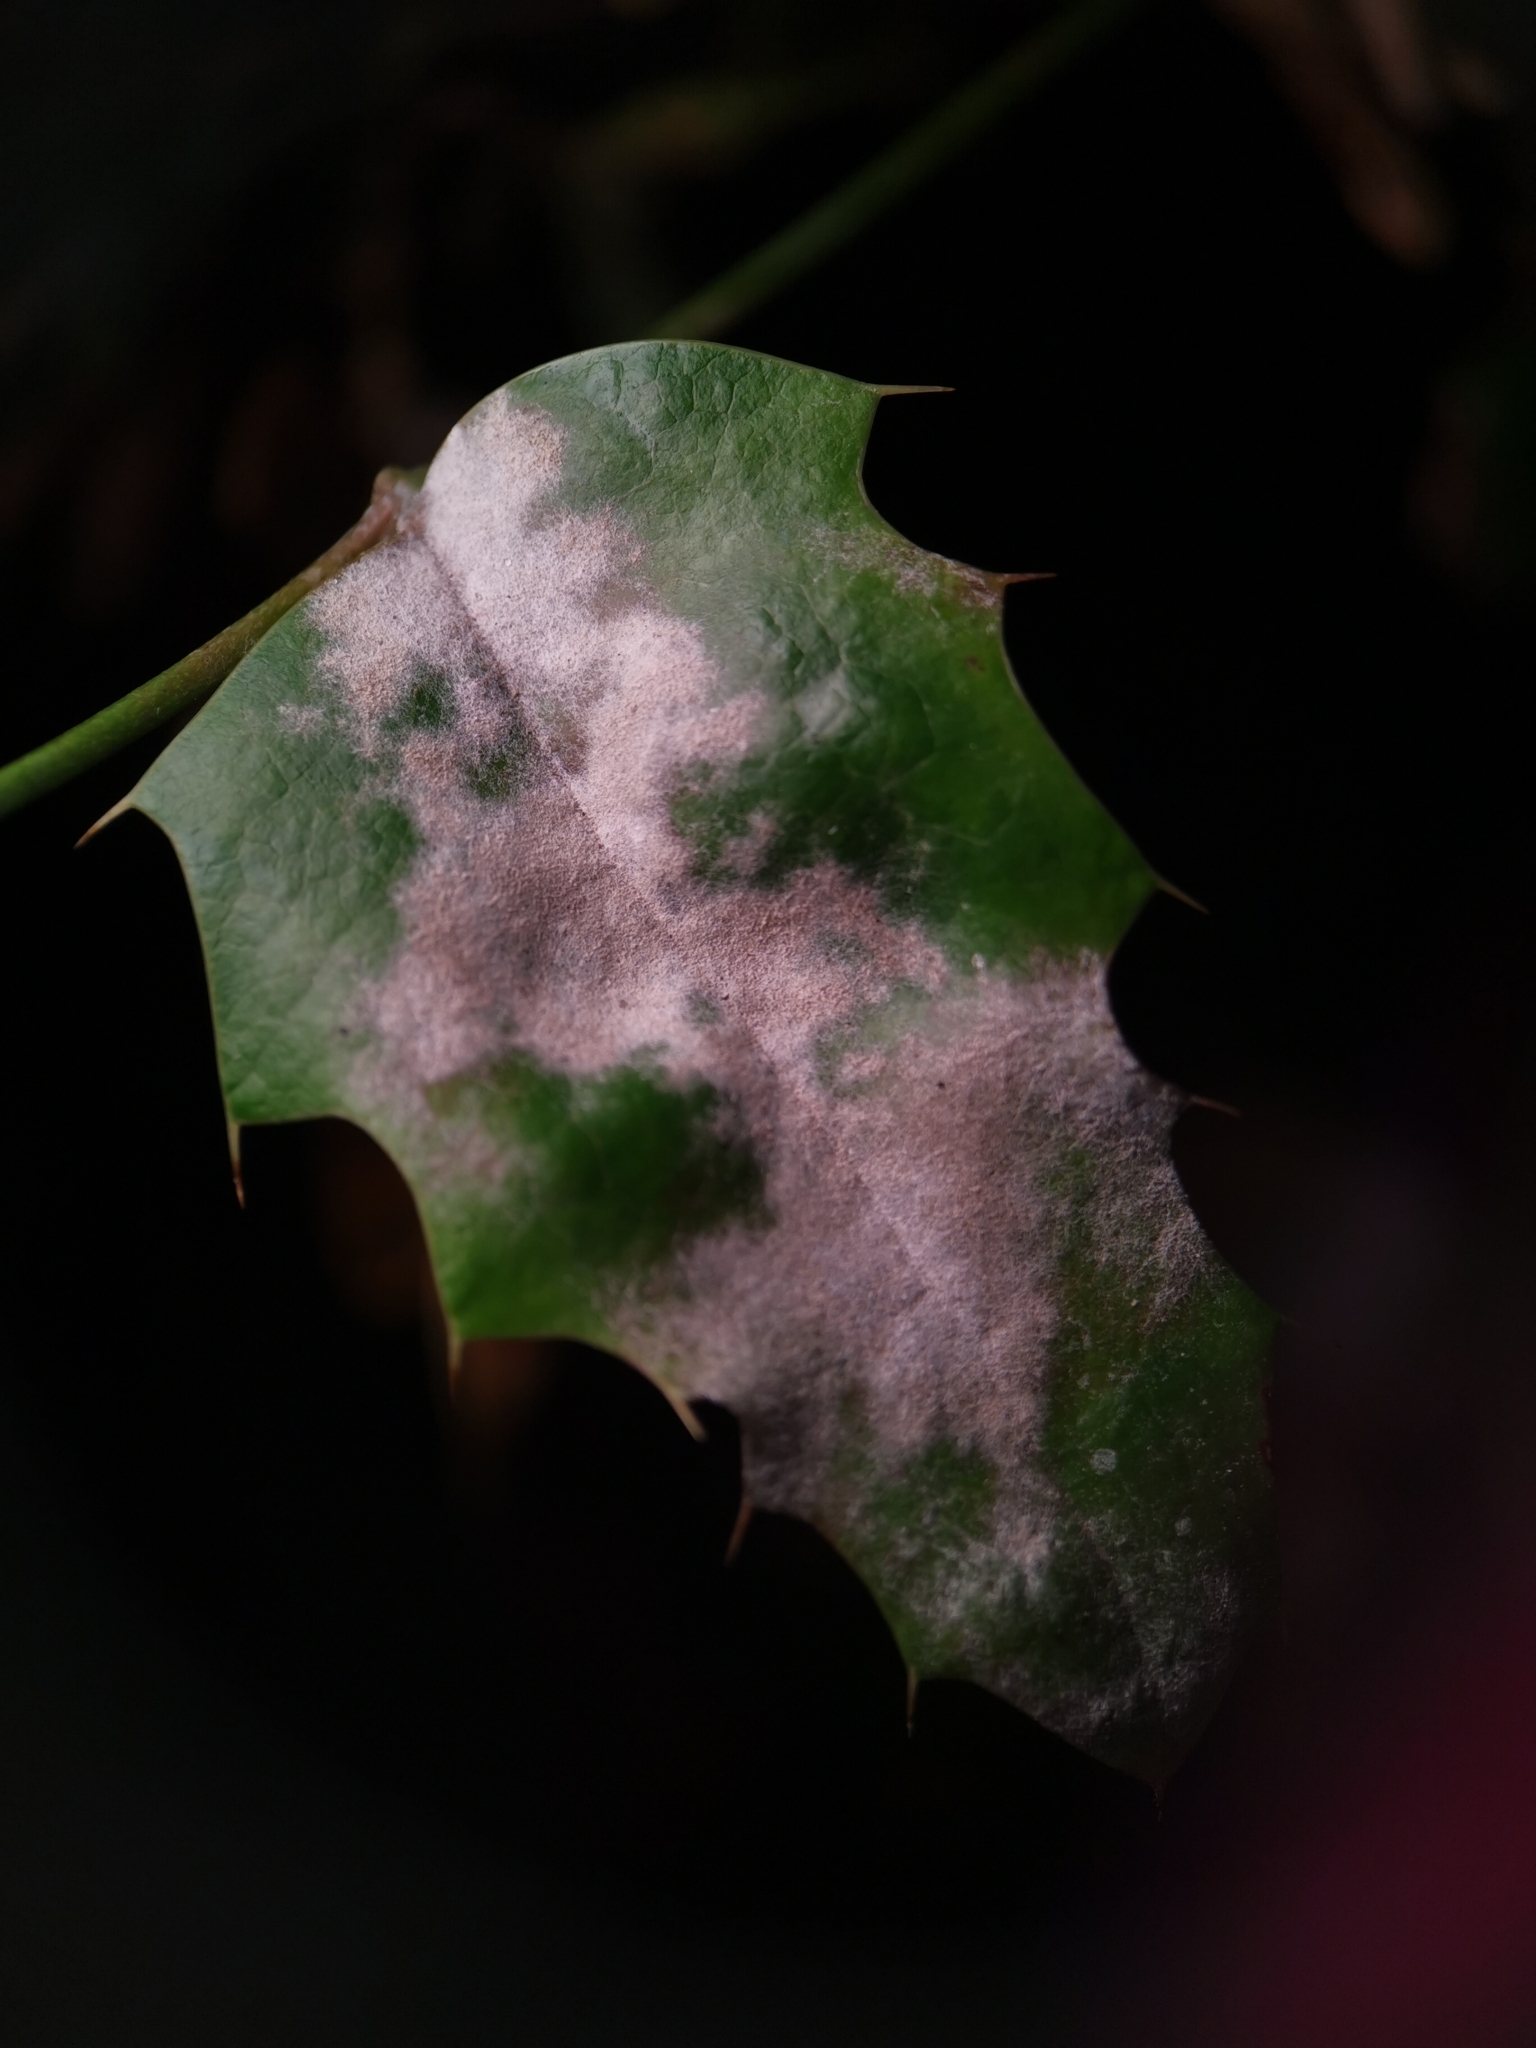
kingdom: Fungi
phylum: Ascomycota
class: Leotiomycetes
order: Helotiales
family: Erysiphaceae
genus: Erysiphe
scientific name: Erysiphe berberidis
